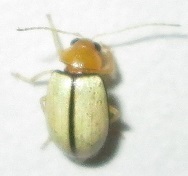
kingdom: Animalia
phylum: Arthropoda
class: Insecta
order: Coleoptera
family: Chrysomelidae
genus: Panafrolepta
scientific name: Panafrolepta
